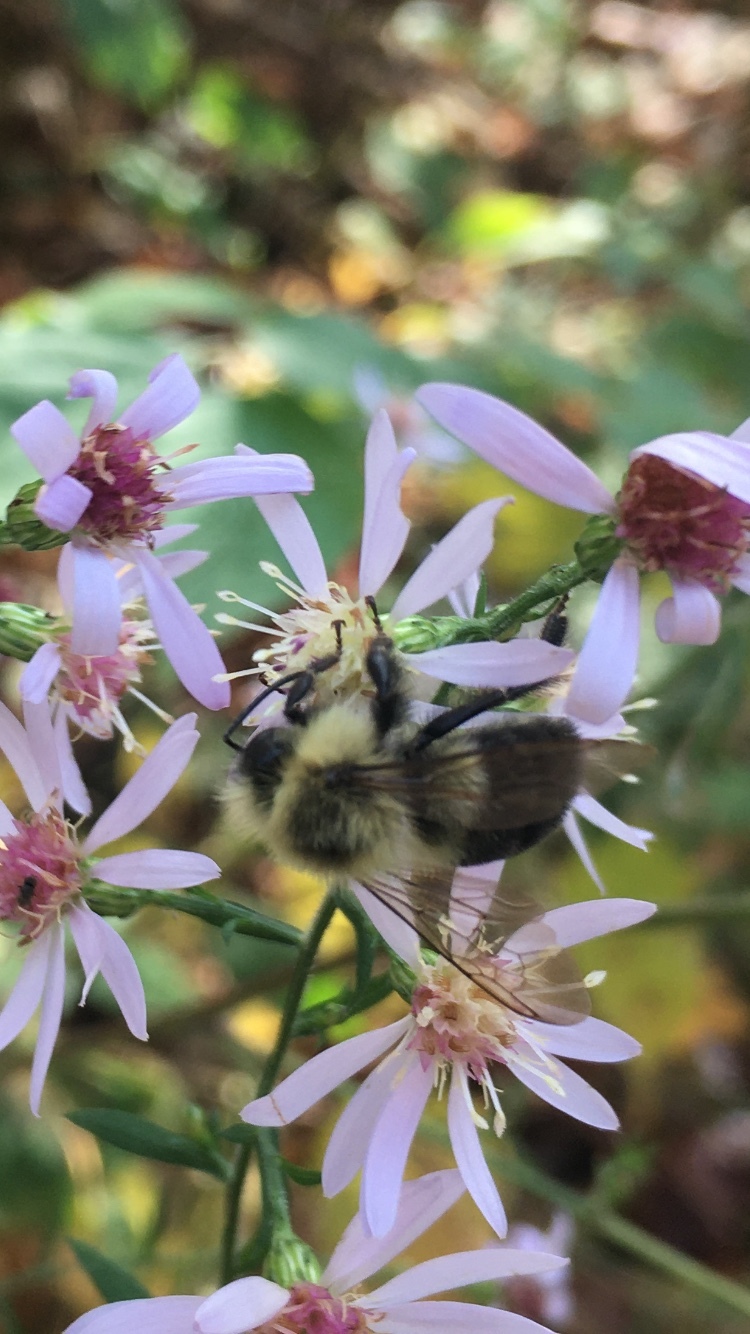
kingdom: Animalia
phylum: Arthropoda
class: Insecta
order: Hymenoptera
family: Apidae
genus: Bombus
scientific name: Bombus impatiens
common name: Common eastern bumble bee
